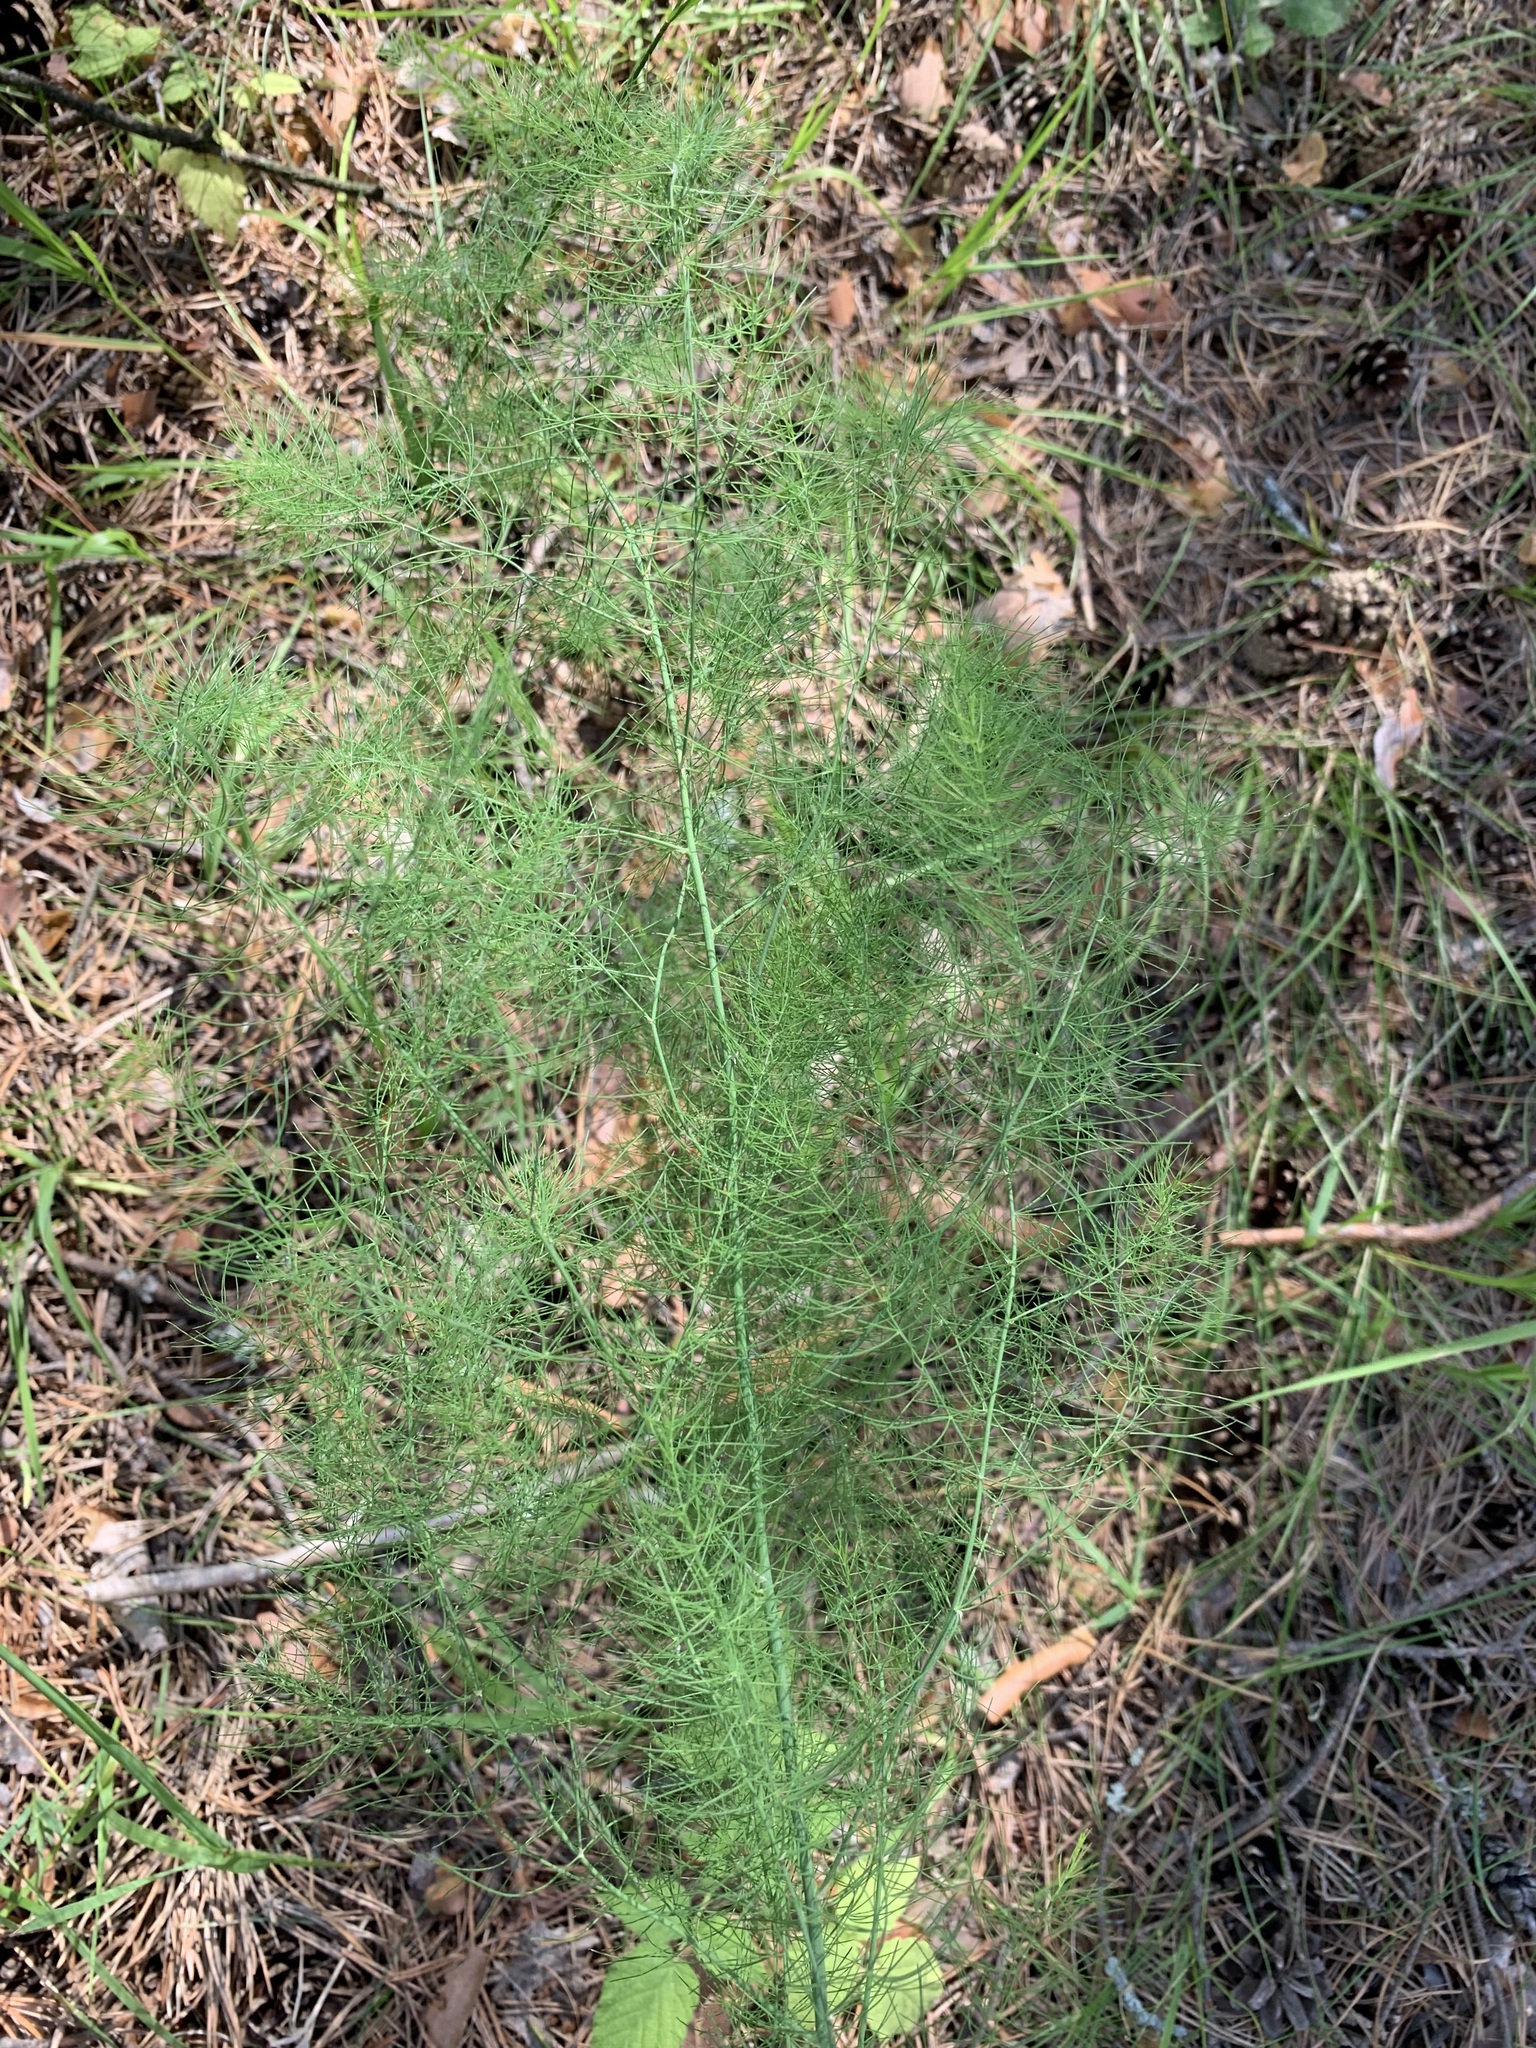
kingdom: Plantae
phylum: Tracheophyta
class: Liliopsida
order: Asparagales
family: Asparagaceae
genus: Asparagus
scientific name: Asparagus officinalis
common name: Garden asparagus
